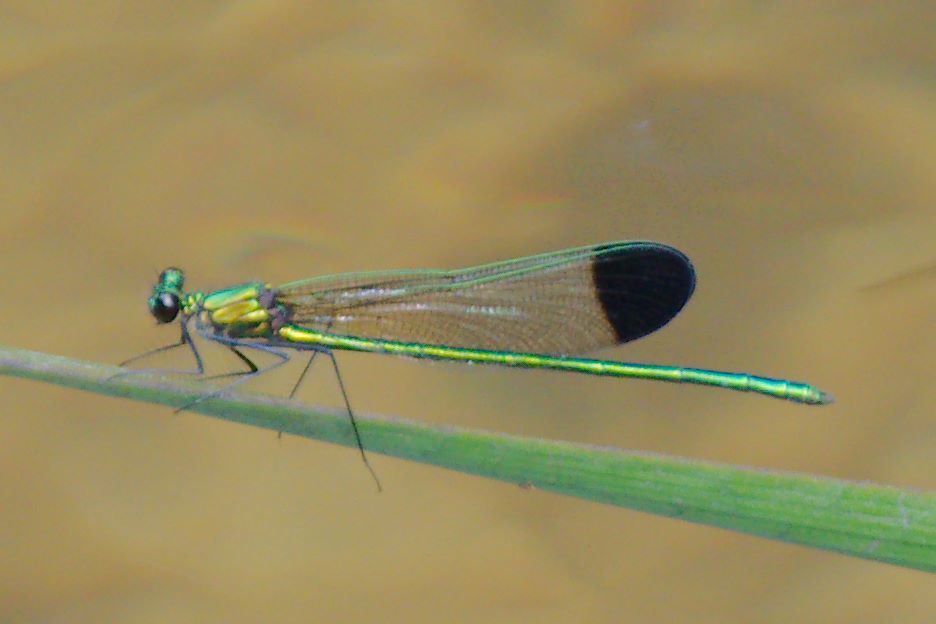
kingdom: Animalia
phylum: Arthropoda
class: Insecta
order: Odonata
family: Calopterygidae
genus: Calopteryx
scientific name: Calopteryx dimidiata
